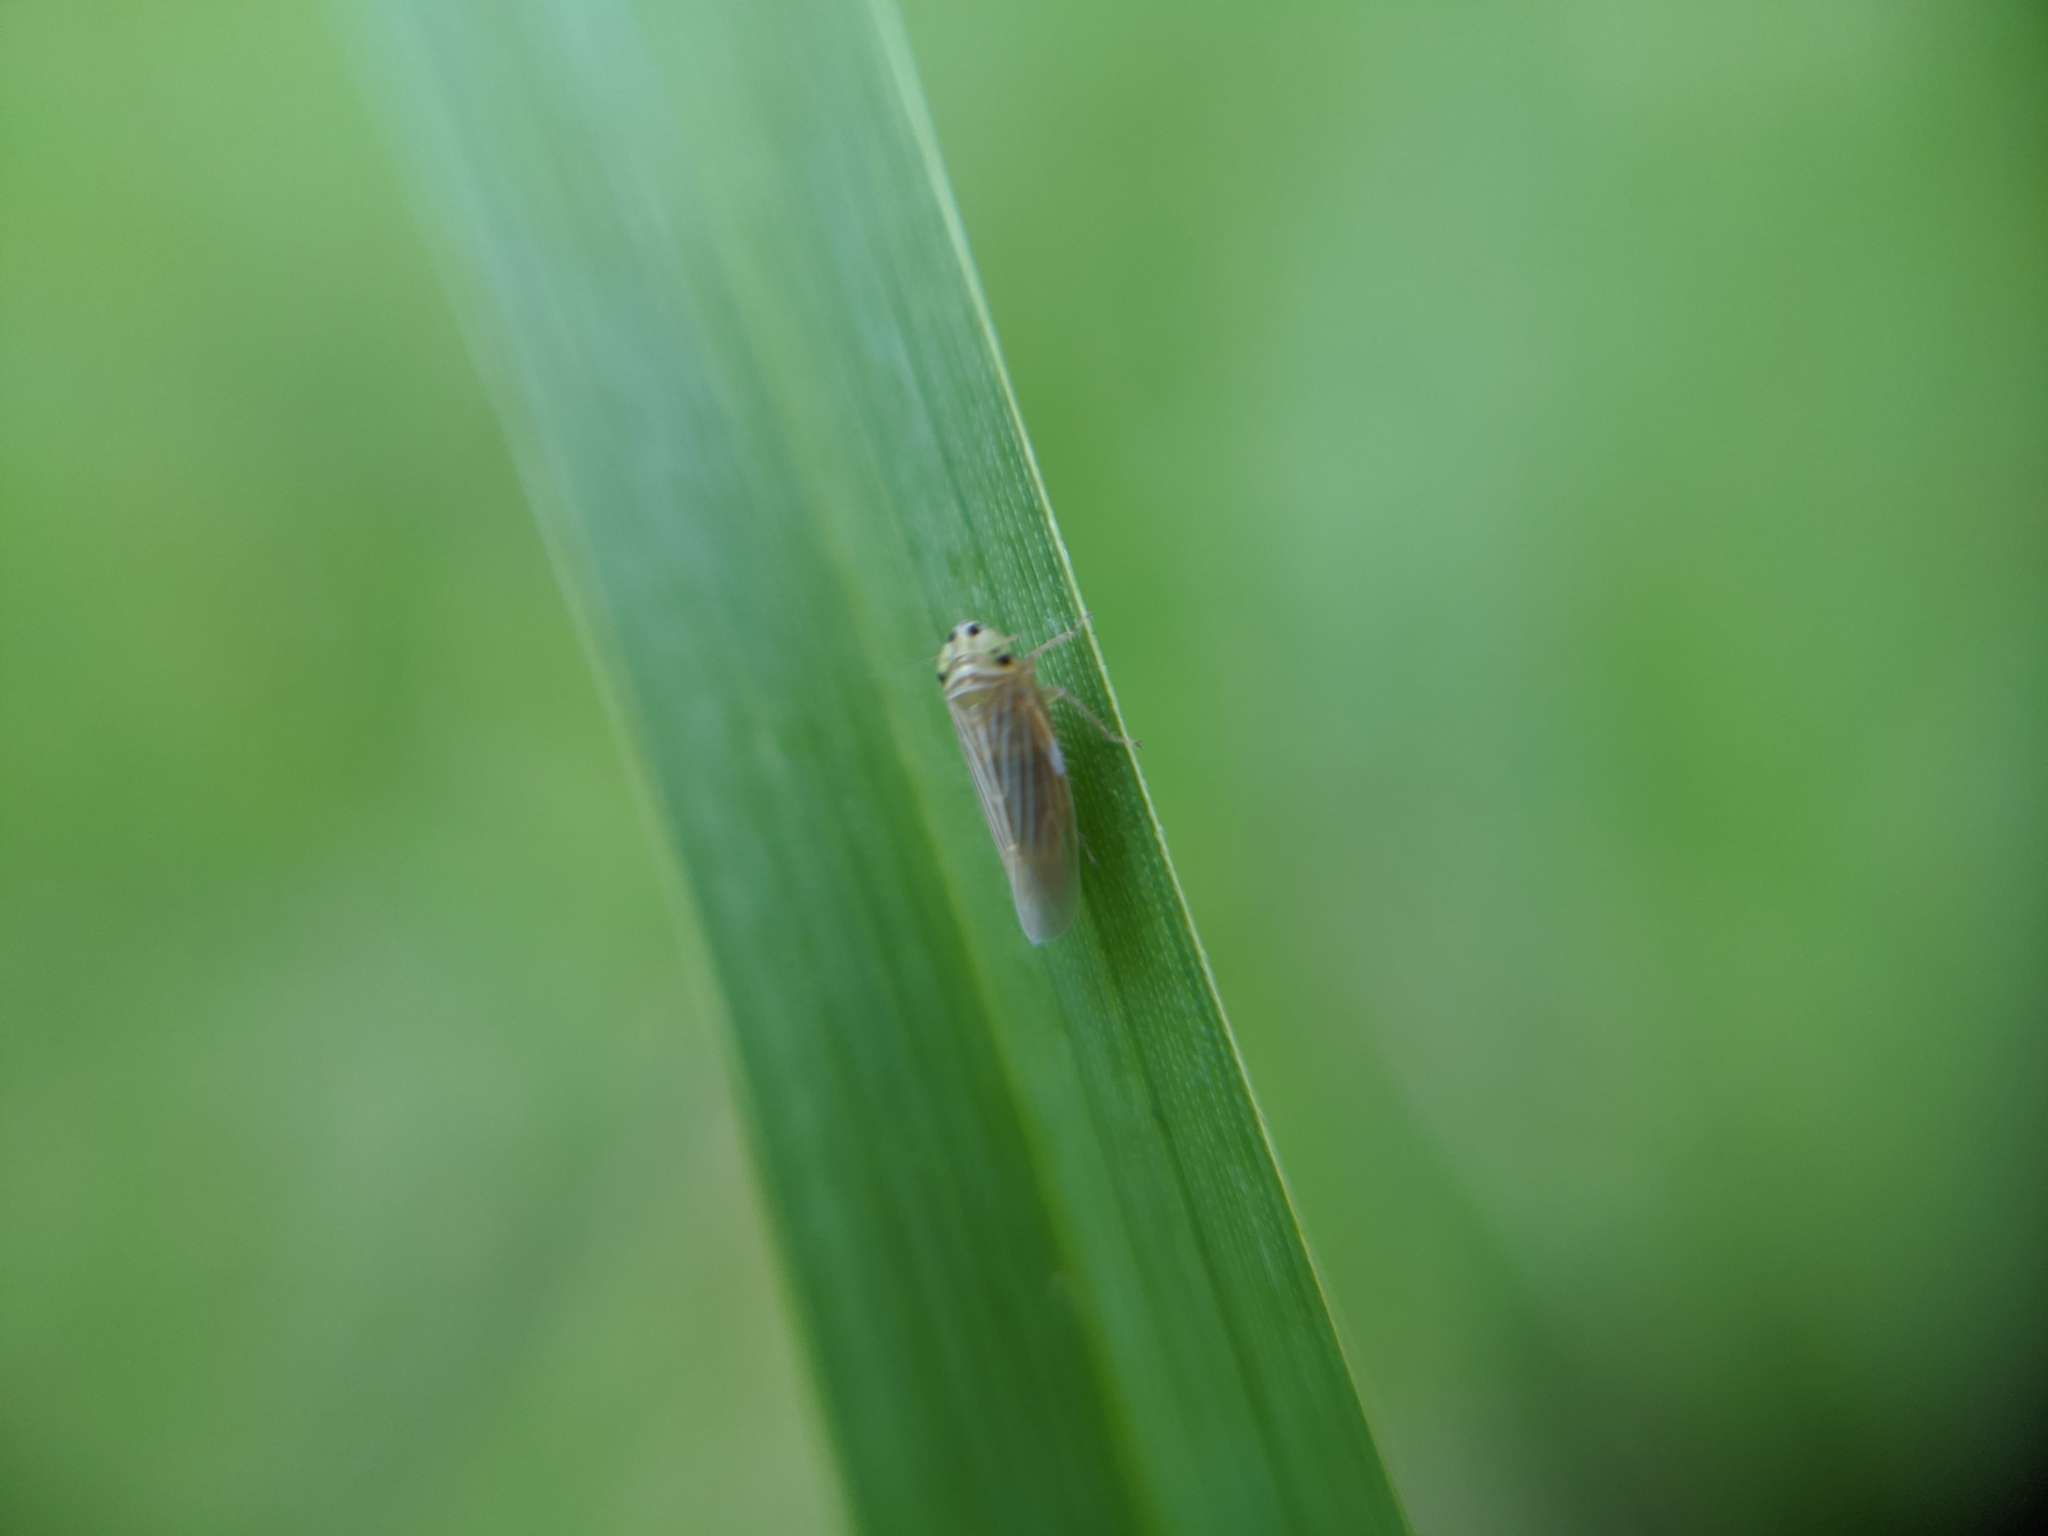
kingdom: Animalia
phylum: Arthropoda
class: Insecta
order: Hemiptera
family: Cicadellidae
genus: Graminella
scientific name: Graminella villicus
